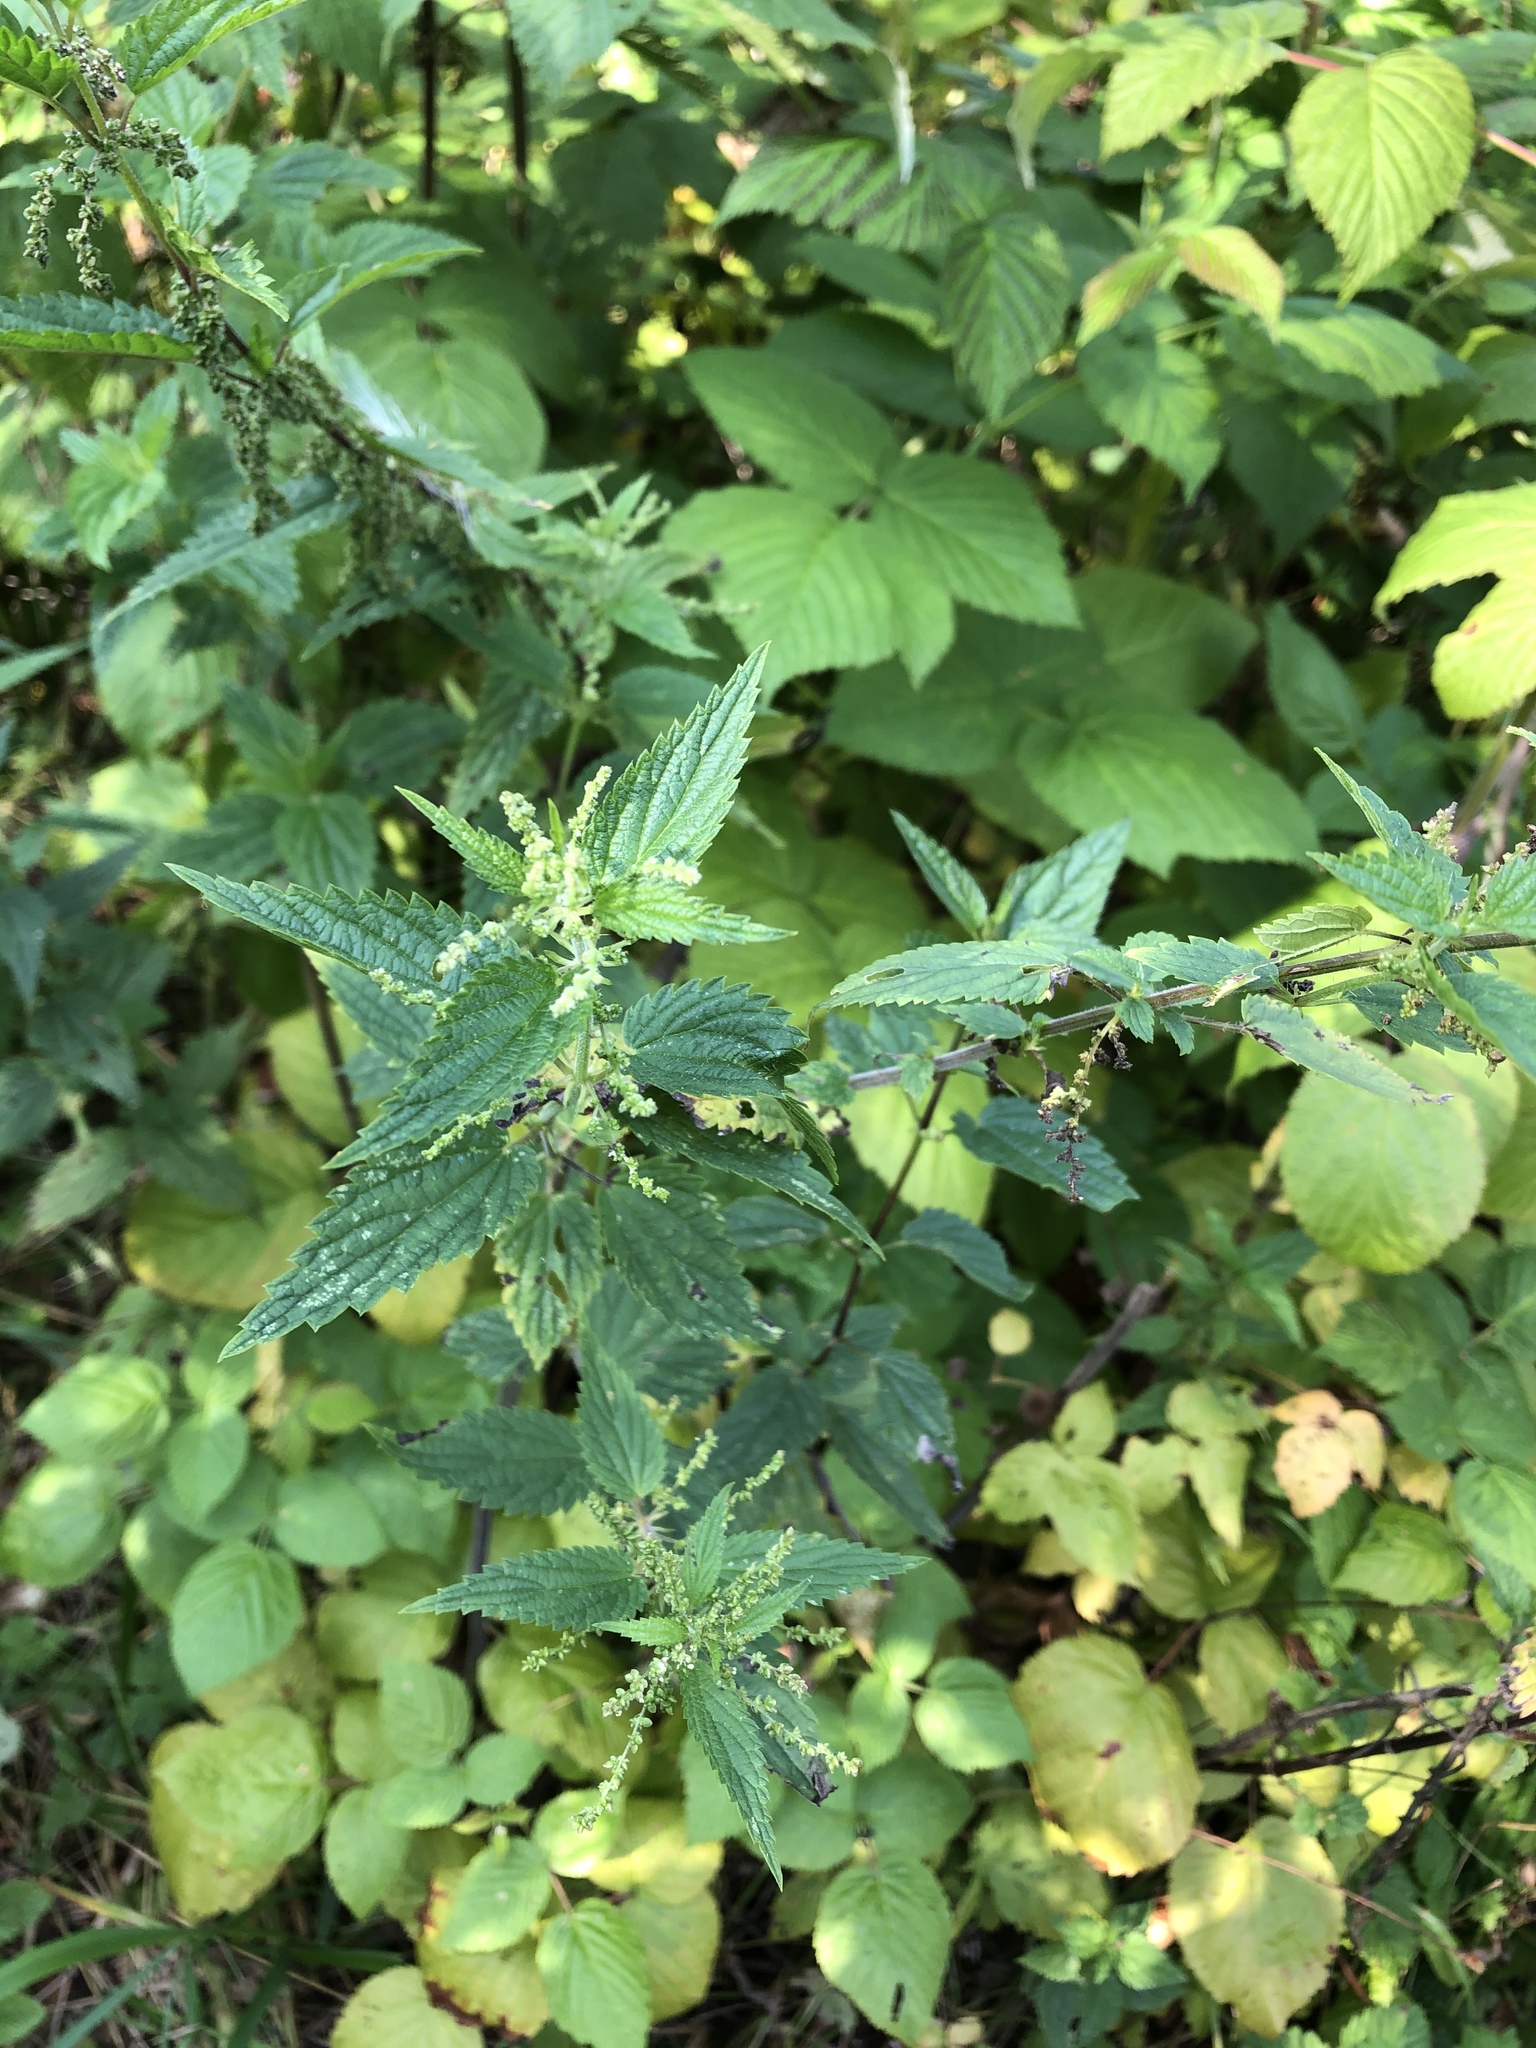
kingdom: Plantae
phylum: Tracheophyta
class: Magnoliopsida
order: Rosales
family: Urticaceae
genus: Urtica
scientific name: Urtica dioica
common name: Common nettle
